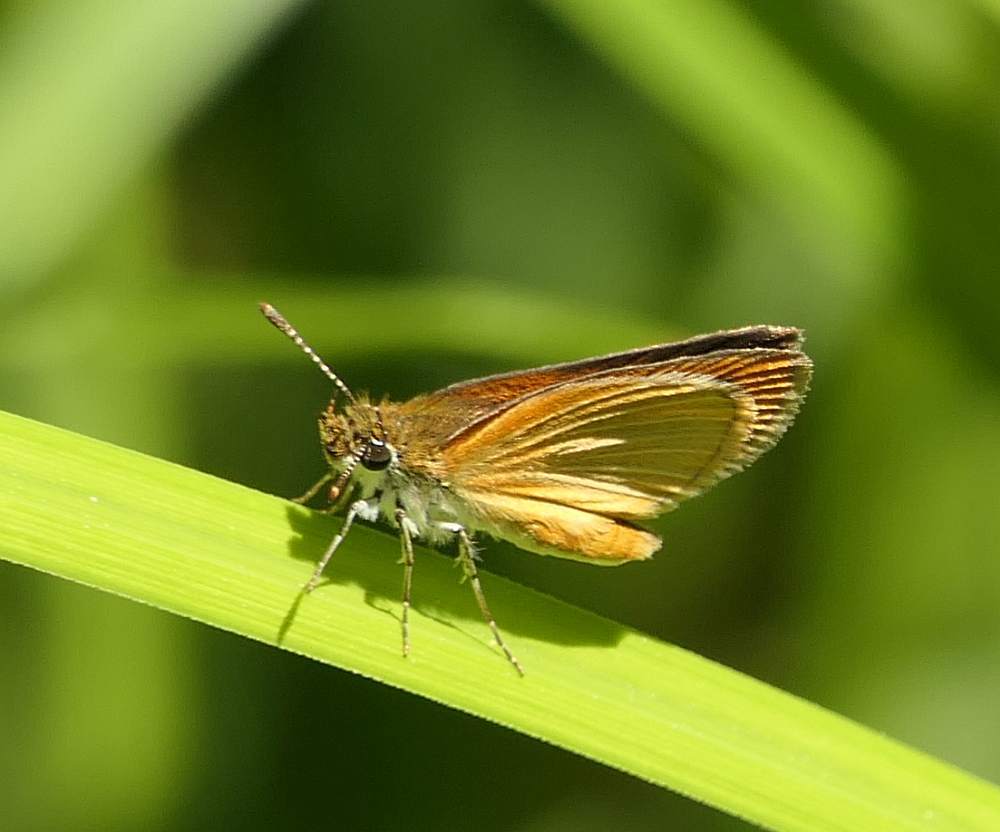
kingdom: Animalia
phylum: Arthropoda
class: Insecta
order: Lepidoptera
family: Hesperiidae
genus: Ancyloxypha
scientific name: Ancyloxypha numitor
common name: Least skipper
